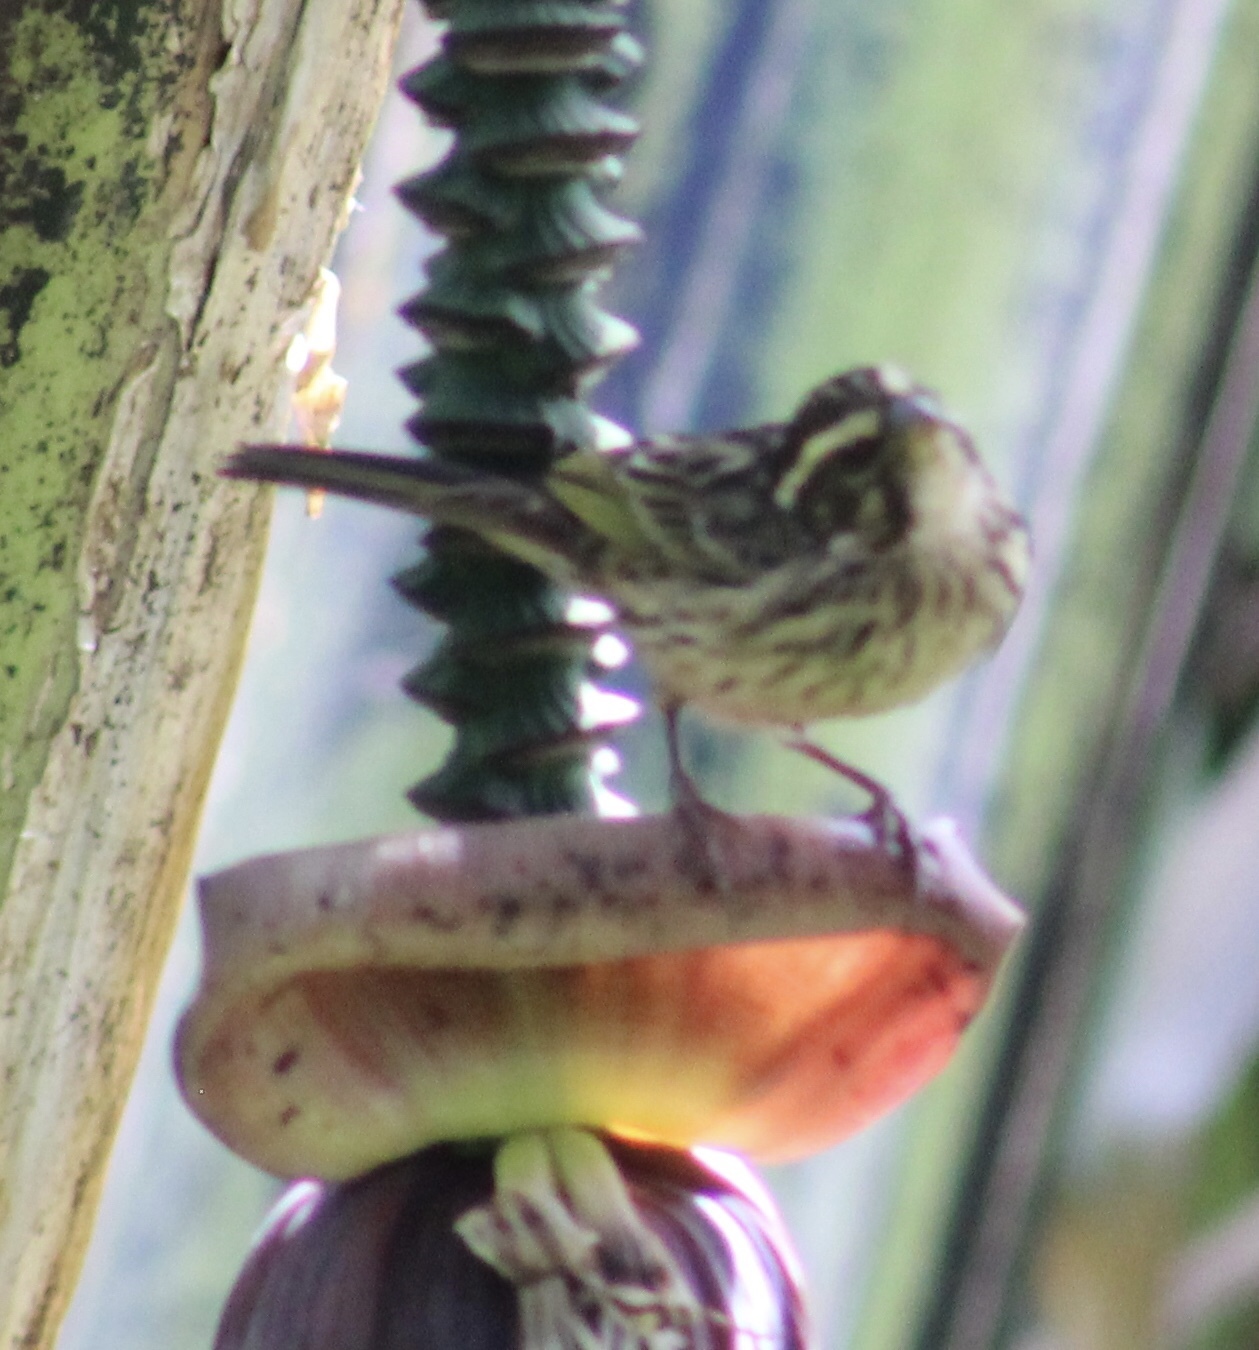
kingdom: Animalia
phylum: Chordata
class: Aves
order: Passeriformes
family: Fringillidae
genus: Crithagra
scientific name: Crithagra striolata
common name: Streaky seedeater
